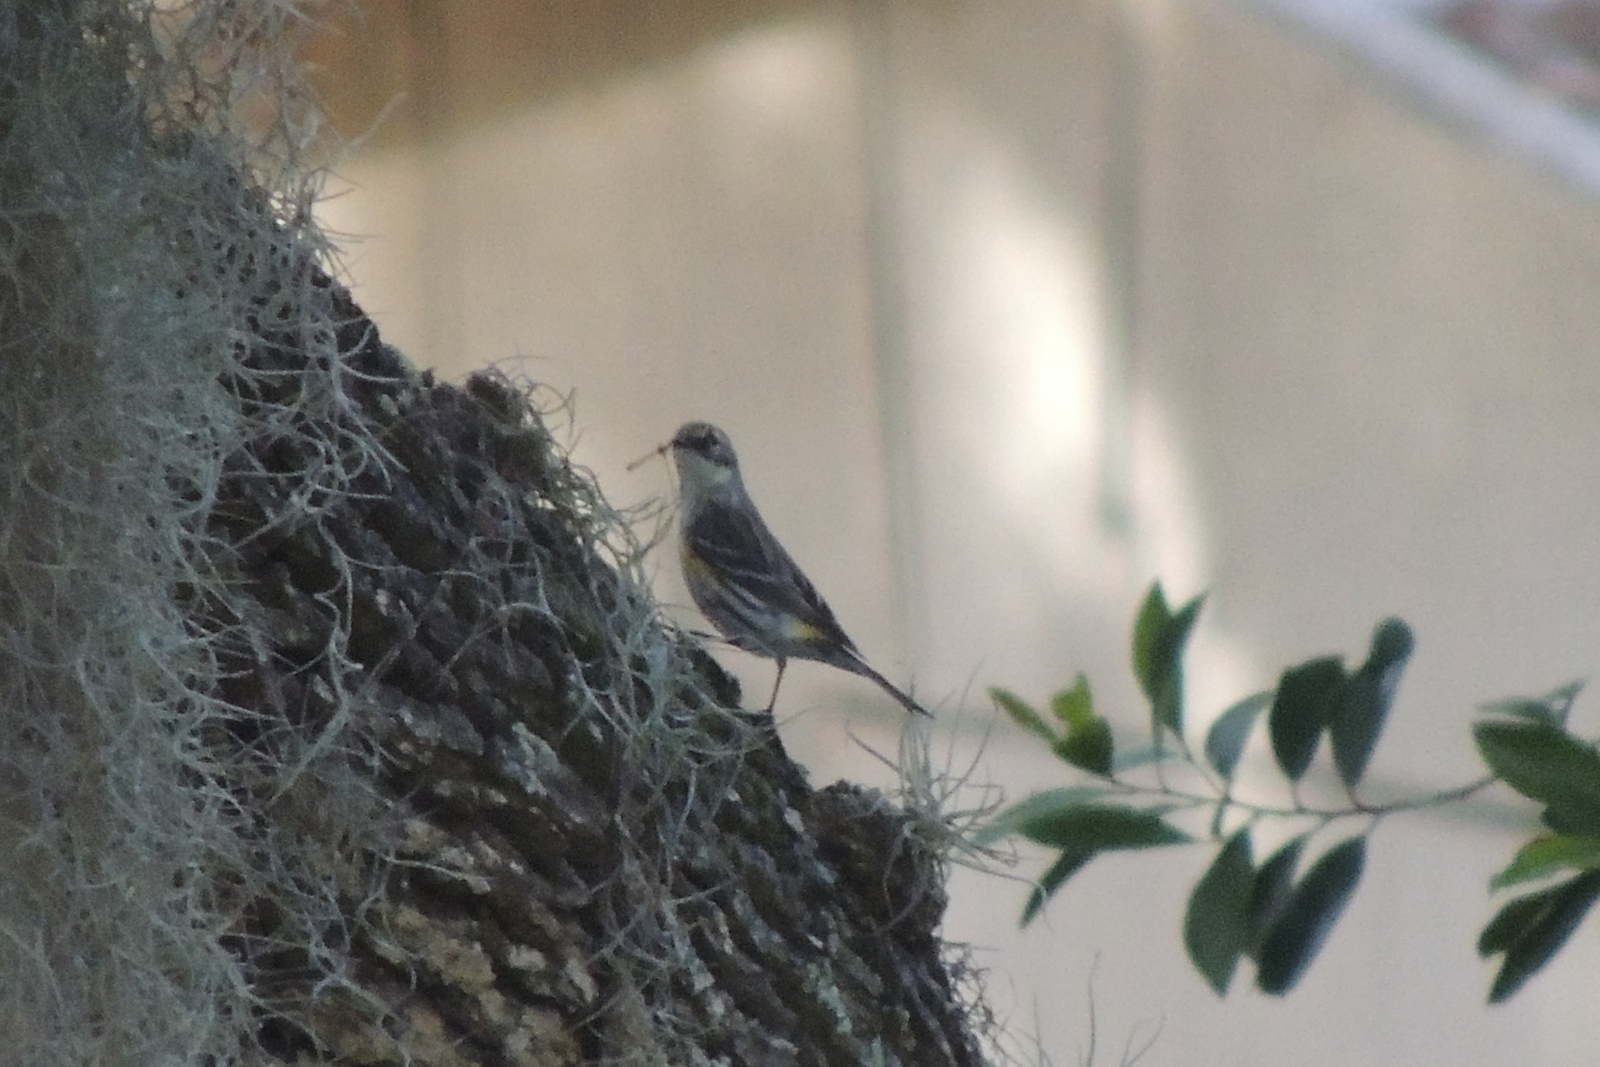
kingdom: Animalia
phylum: Chordata
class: Aves
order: Passeriformes
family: Parulidae
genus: Setophaga
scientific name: Setophaga coronata
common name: Myrtle warbler
